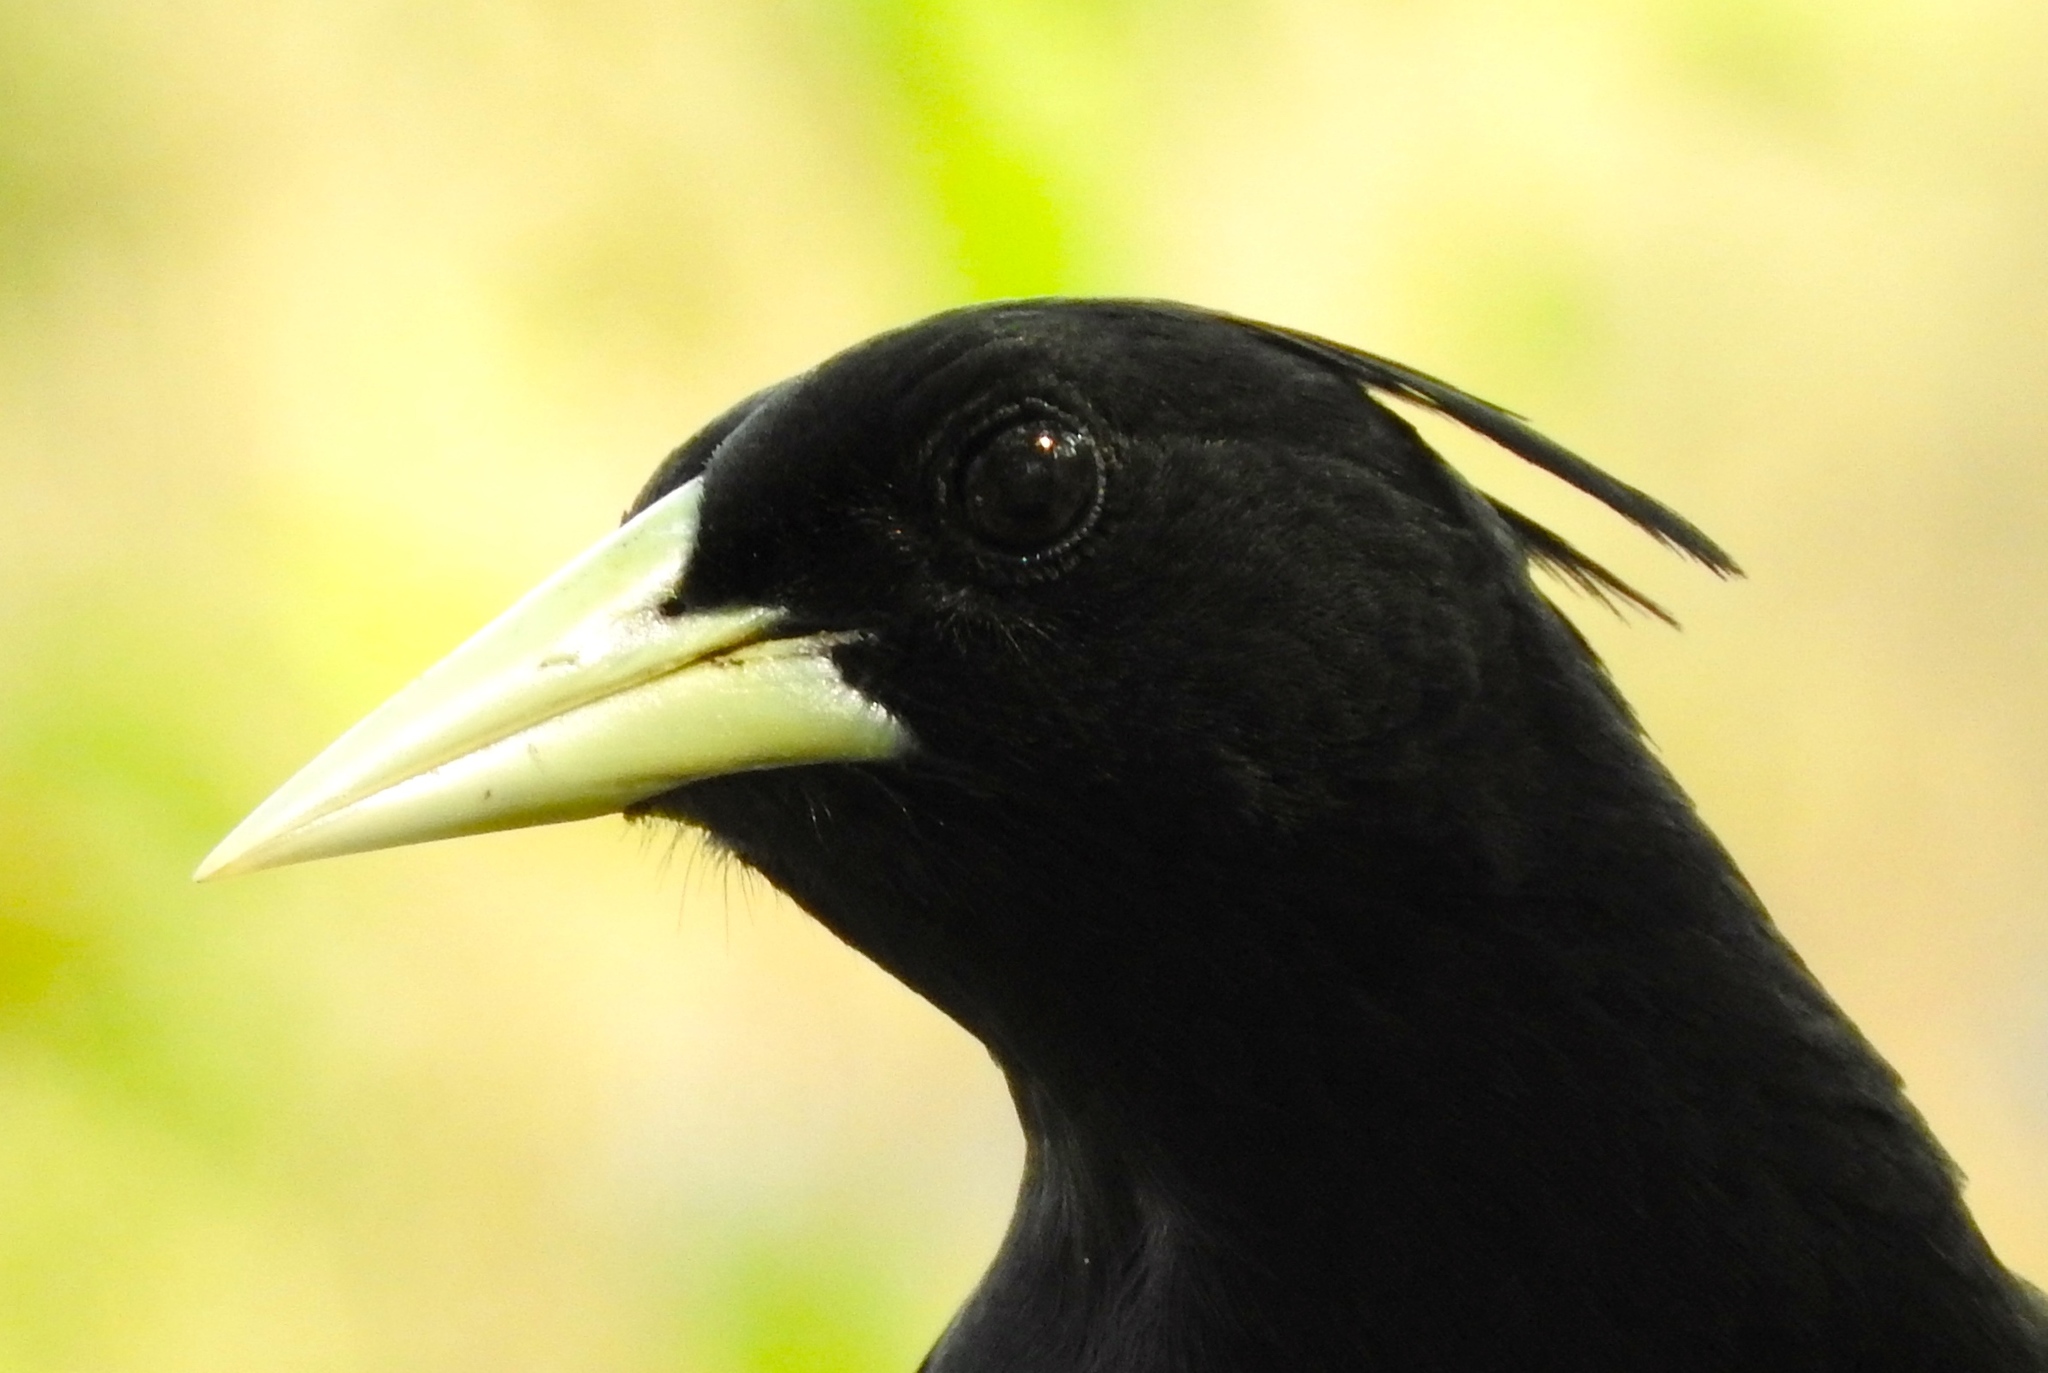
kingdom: Animalia
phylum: Chordata
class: Aves
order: Passeriformes
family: Icteridae
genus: Cacicus
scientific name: Cacicus melanicterus
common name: Yellow-winged cacique
